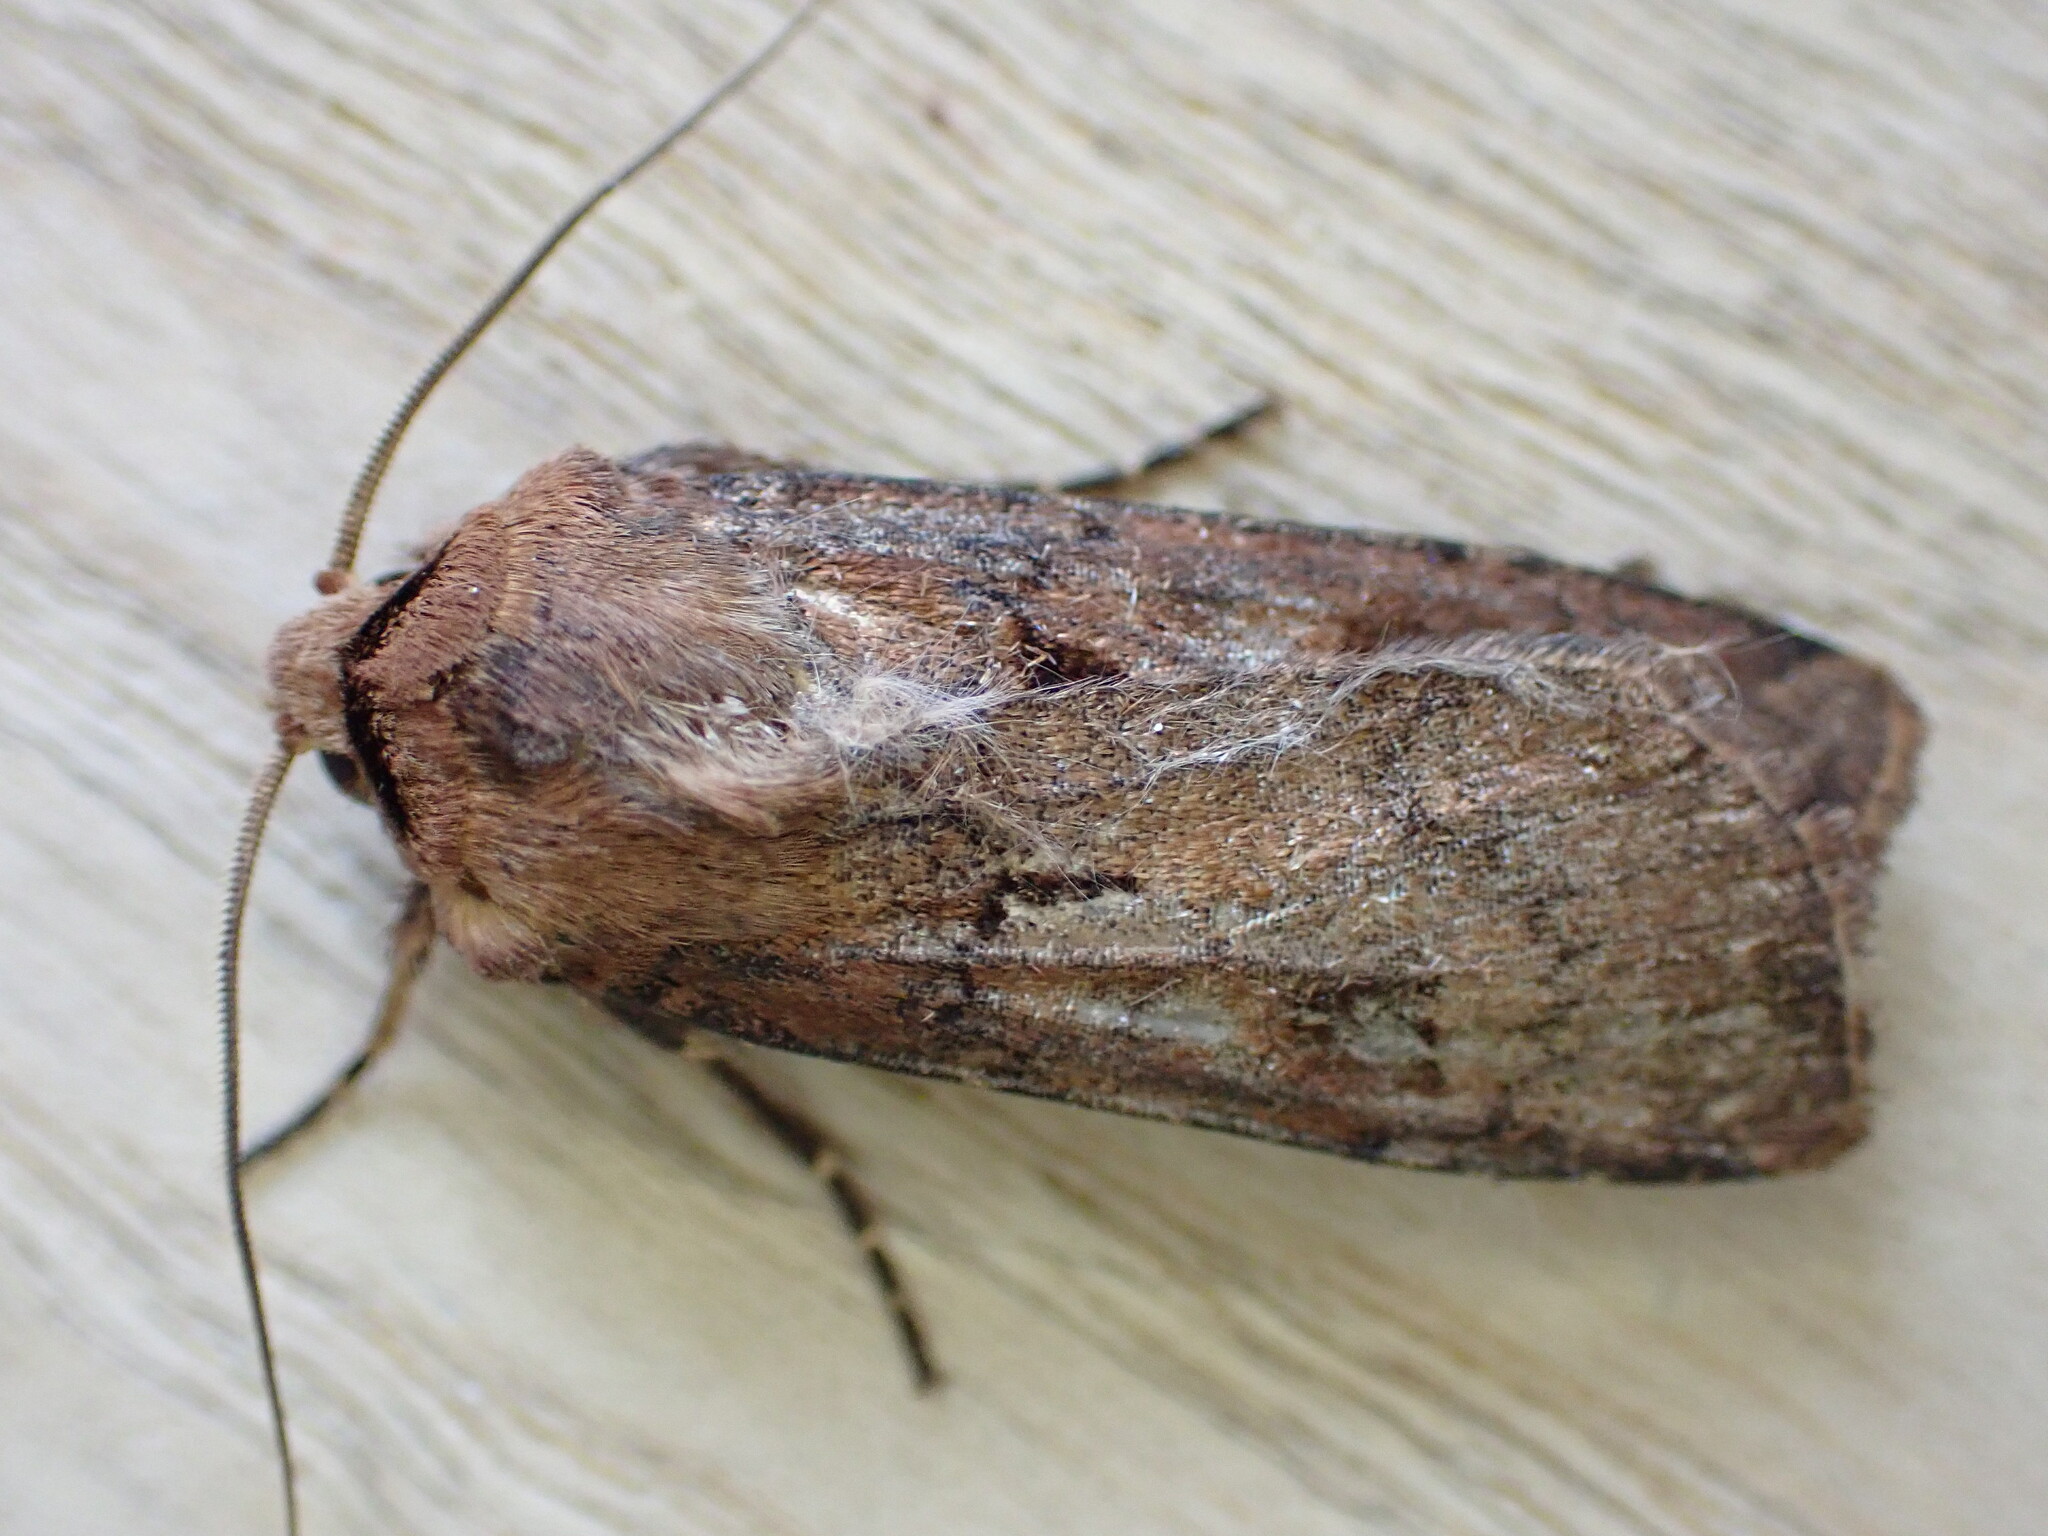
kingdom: Animalia
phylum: Arthropoda
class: Insecta
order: Lepidoptera
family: Noctuidae
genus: Agrotis
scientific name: Agrotis exclamationis
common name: Heart and dart
